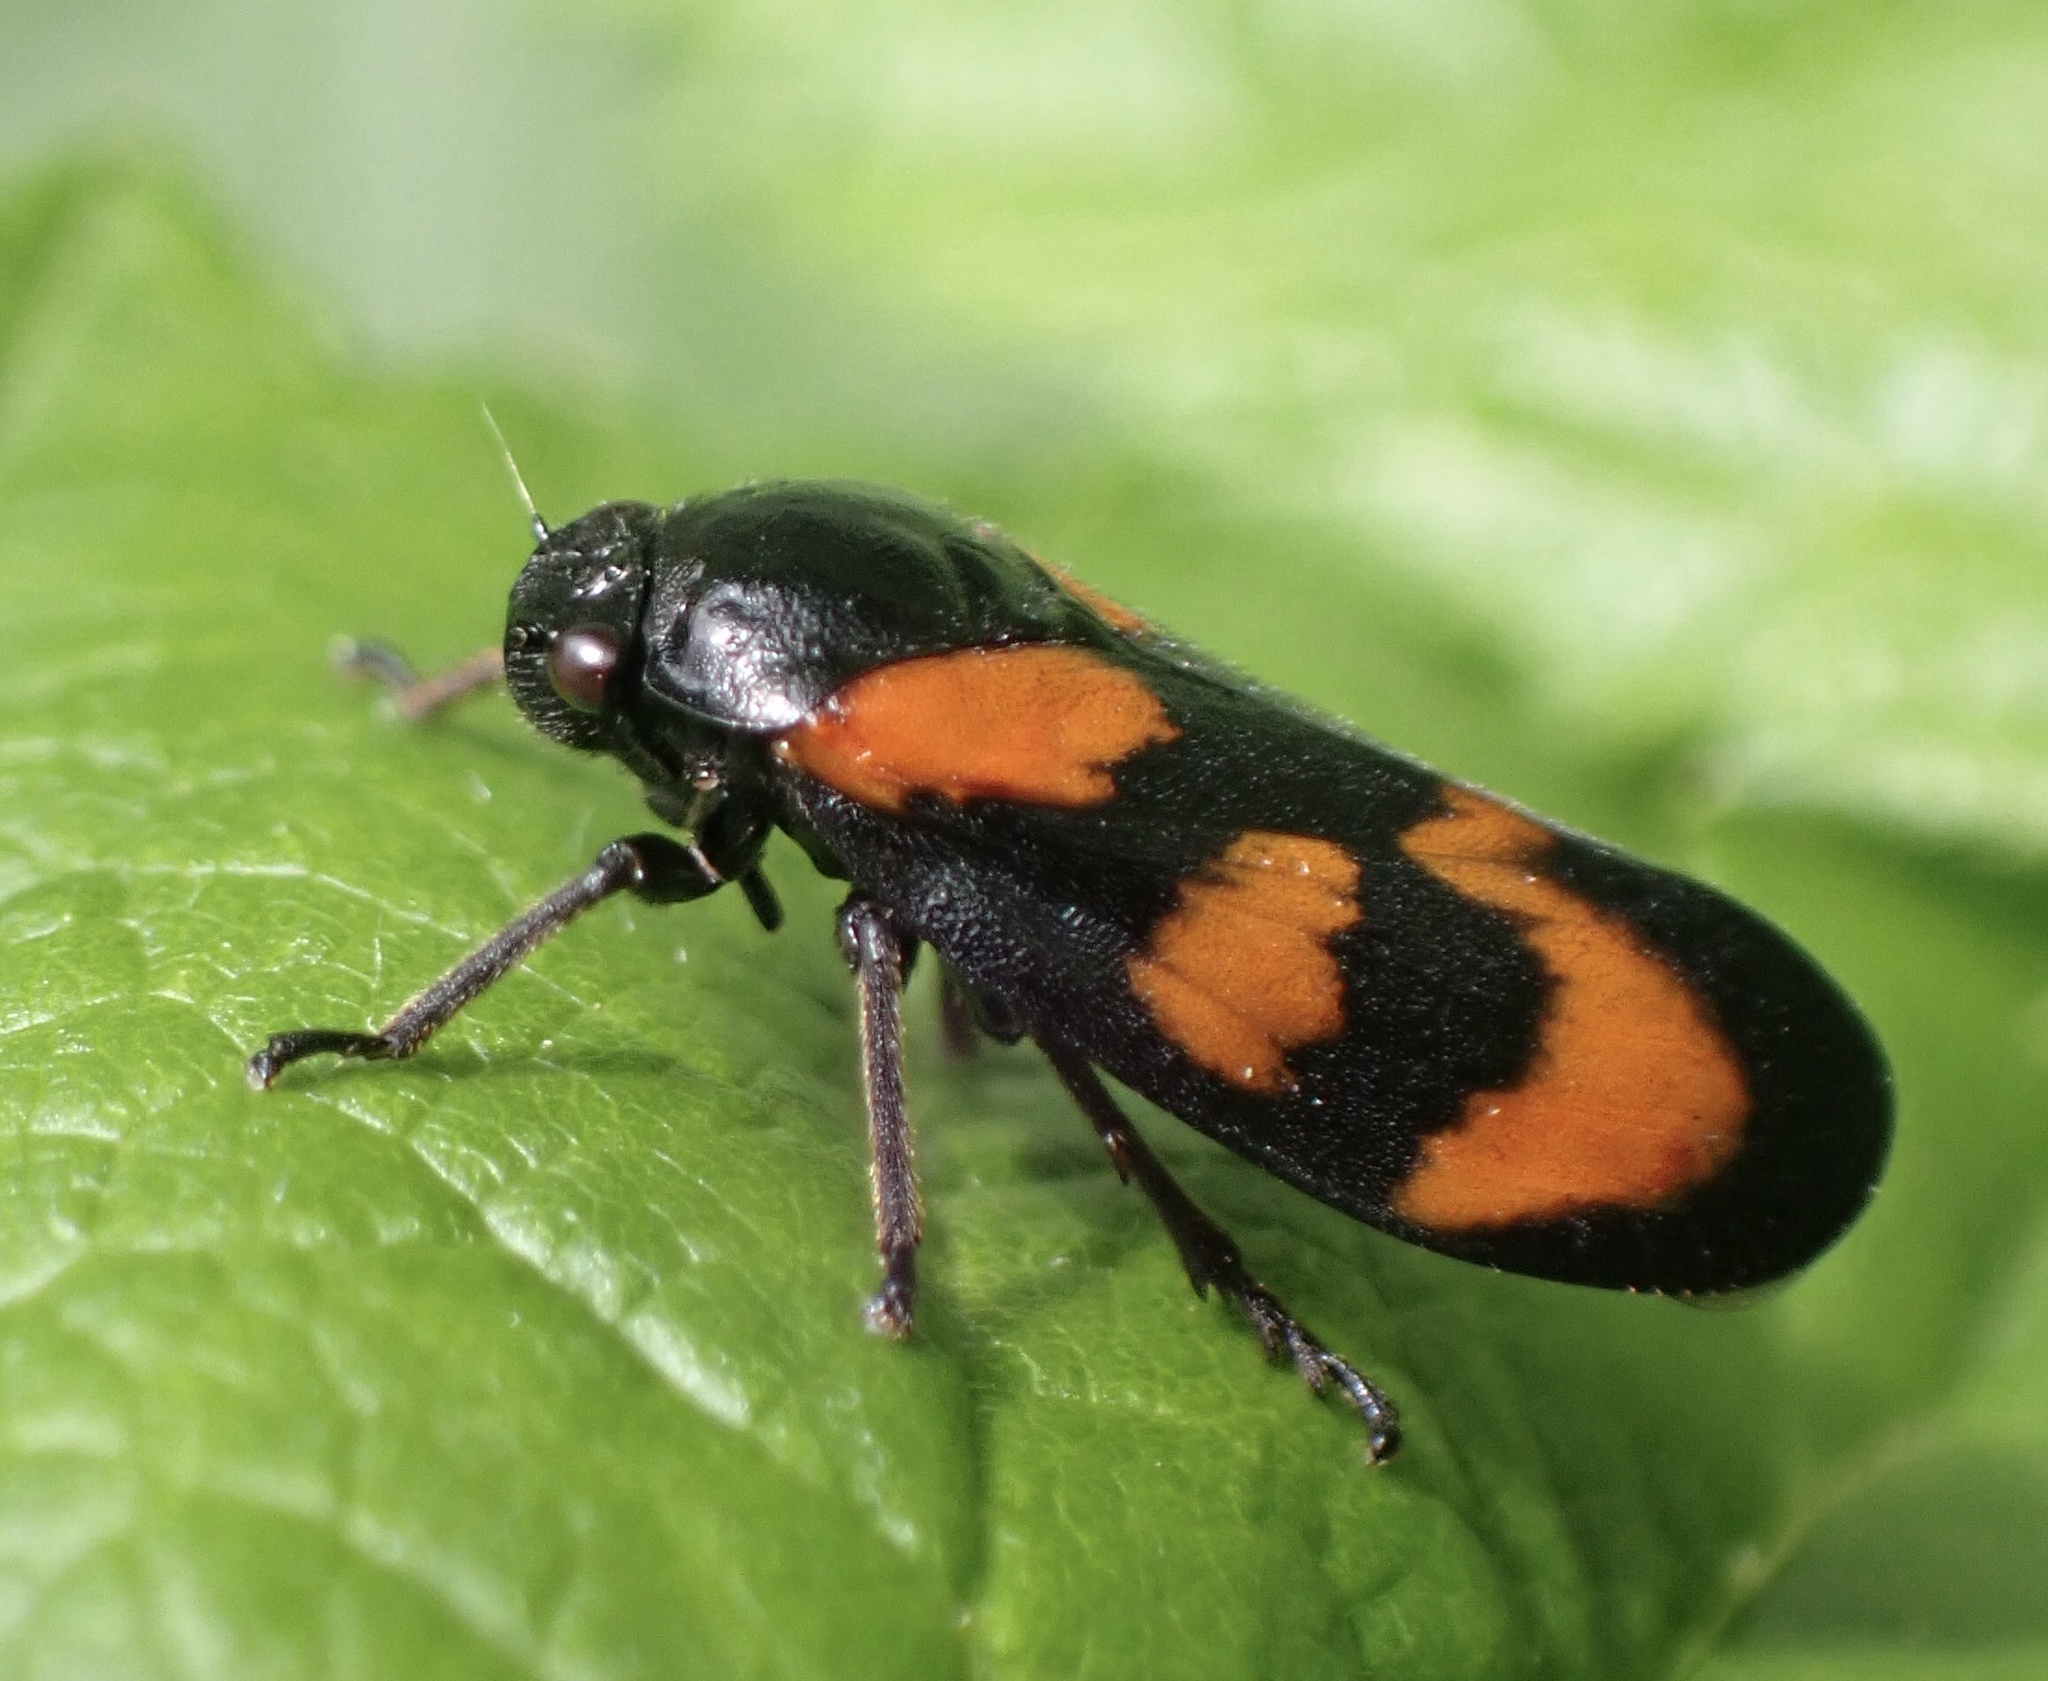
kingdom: Animalia
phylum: Arthropoda
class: Insecta
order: Hemiptera
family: Cercopidae
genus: Cercopis
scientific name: Cercopis vulnerata
